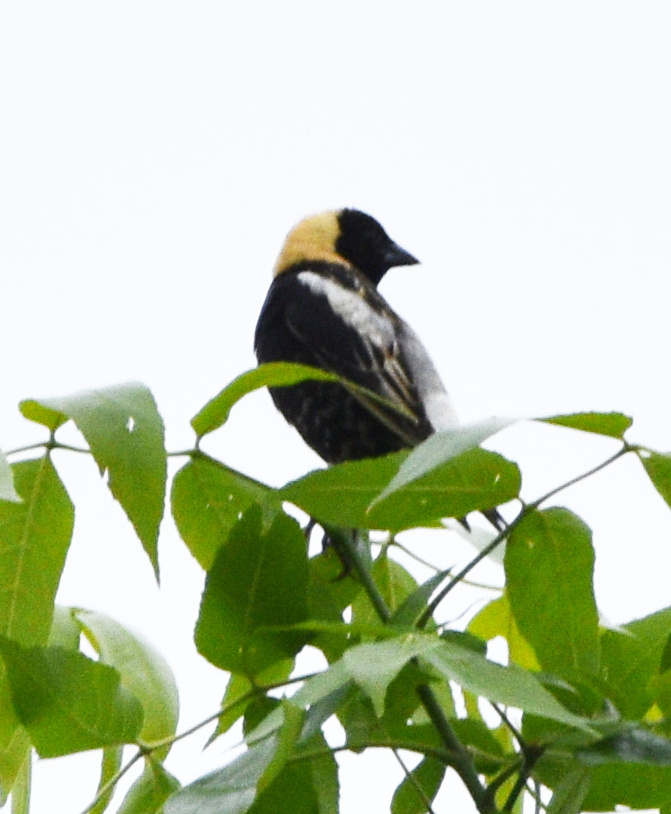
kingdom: Animalia
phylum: Chordata
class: Aves
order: Passeriformes
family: Icteridae
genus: Dolichonyx
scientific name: Dolichonyx oryzivorus
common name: Bobolink
